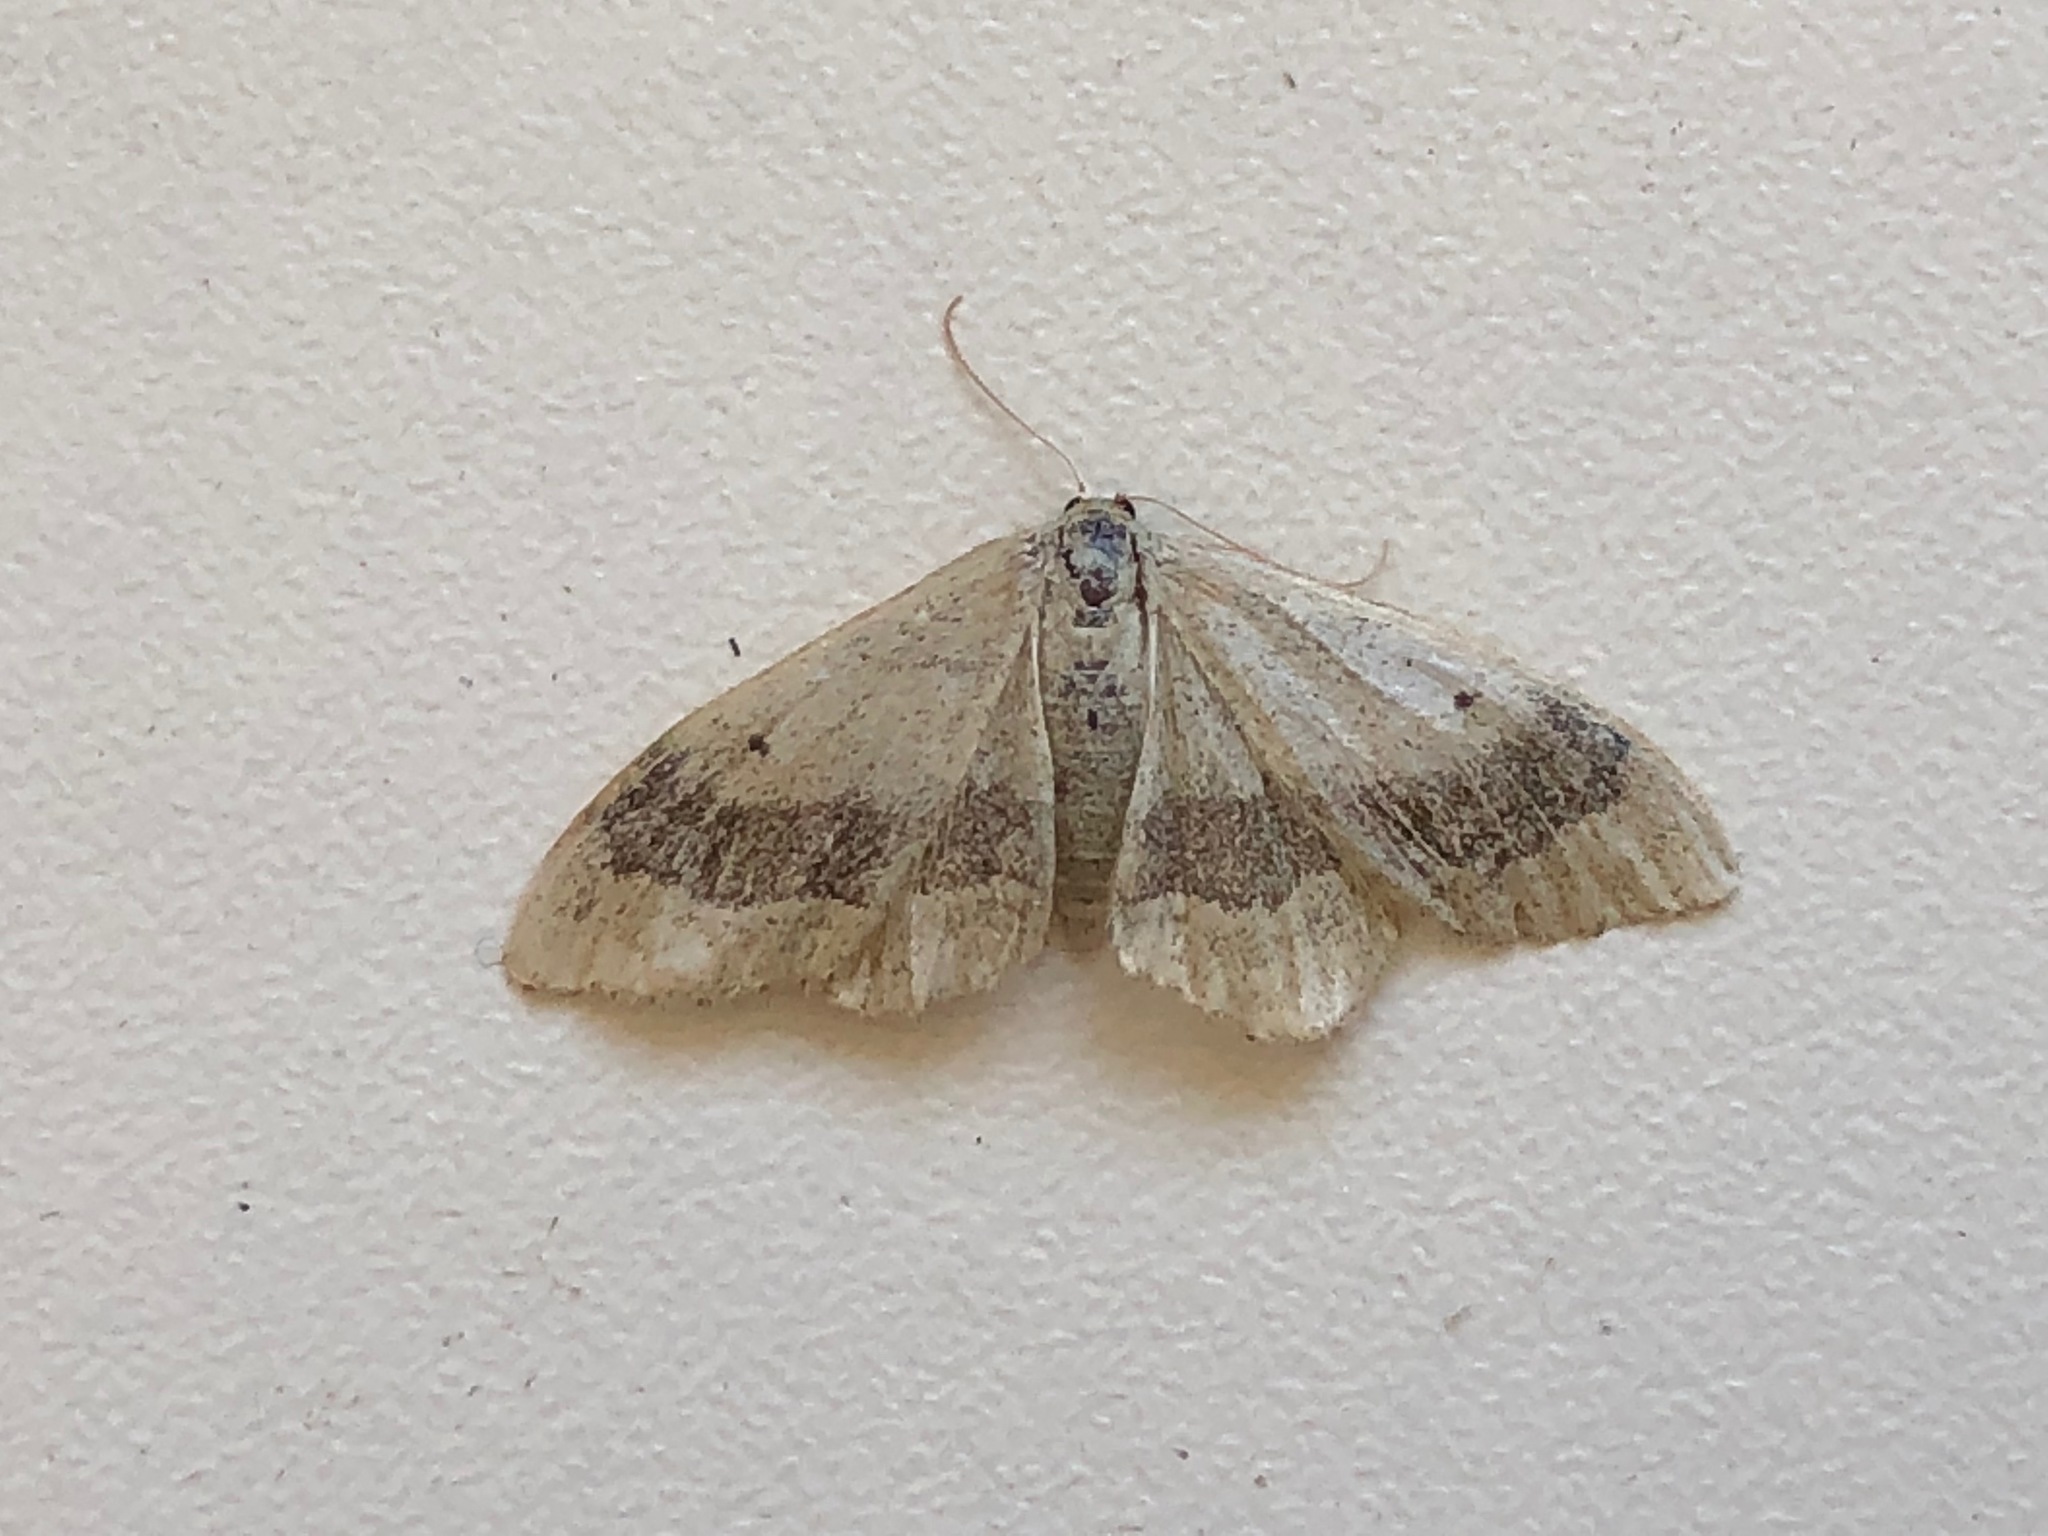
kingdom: Animalia
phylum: Arthropoda
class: Insecta
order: Lepidoptera
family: Geometridae
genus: Idaea
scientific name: Idaea aversata
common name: Riband wave
